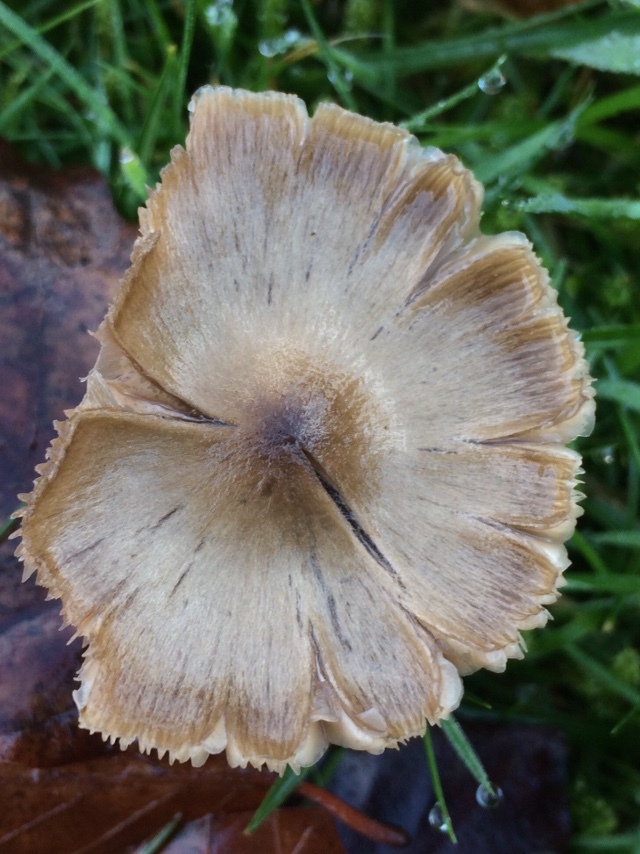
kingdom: Fungi
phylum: Basidiomycota
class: Agaricomycetes
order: Agaricales
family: Entolomataceae
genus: Entoloma
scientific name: Entoloma conferendum
